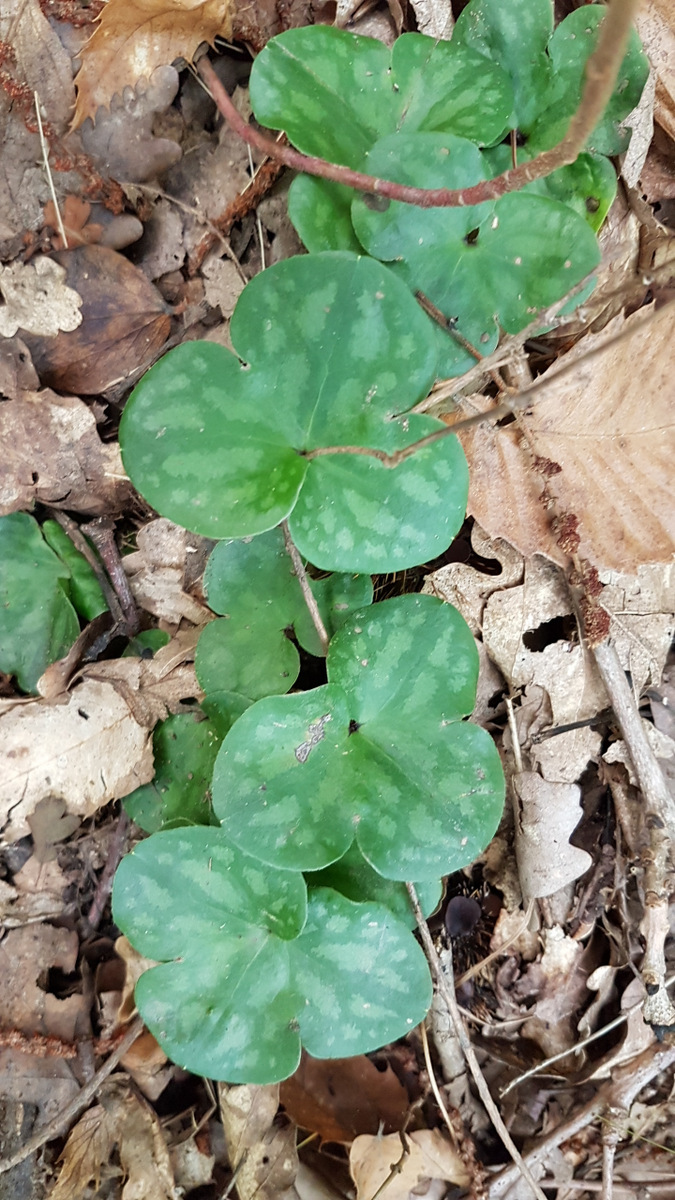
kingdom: Plantae
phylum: Tracheophyta
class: Magnoliopsida
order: Ranunculales
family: Ranunculaceae
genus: Hepatica
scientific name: Hepatica nobilis
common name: Liverleaf
